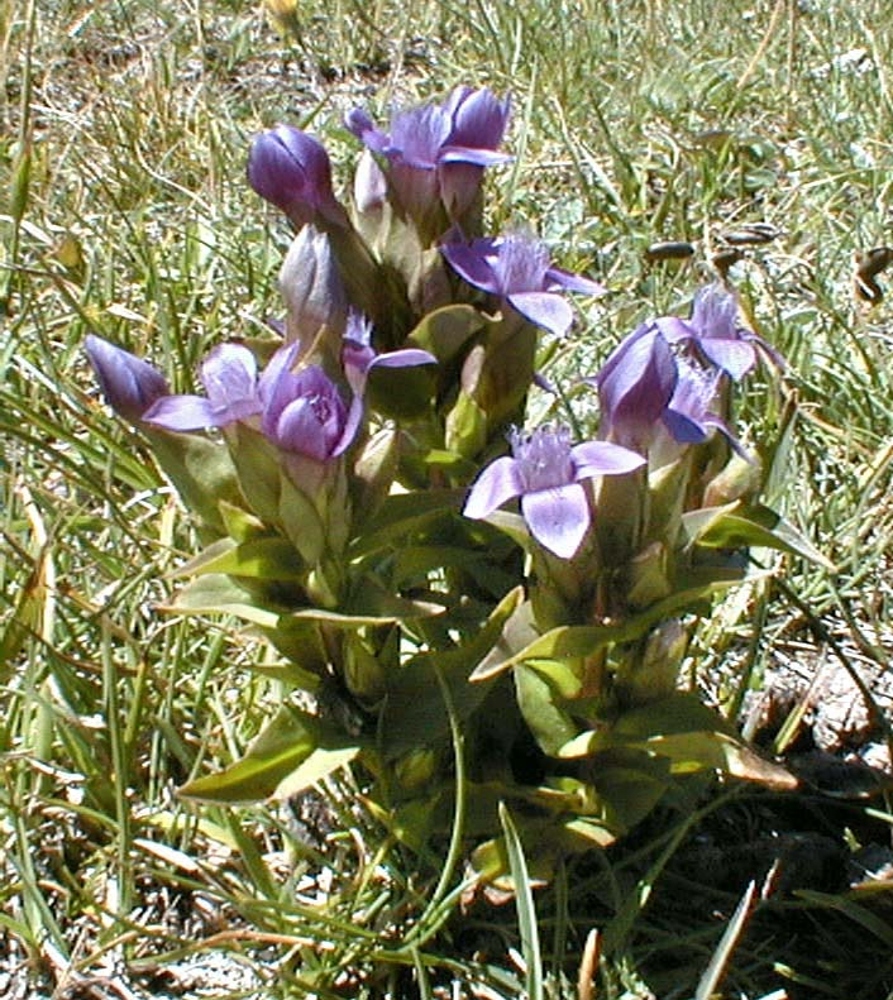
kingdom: Plantae
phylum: Tracheophyta
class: Magnoliopsida
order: Gentianales
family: Gentianaceae
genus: Gentianella
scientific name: Gentianella campestris
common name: Field gentian
